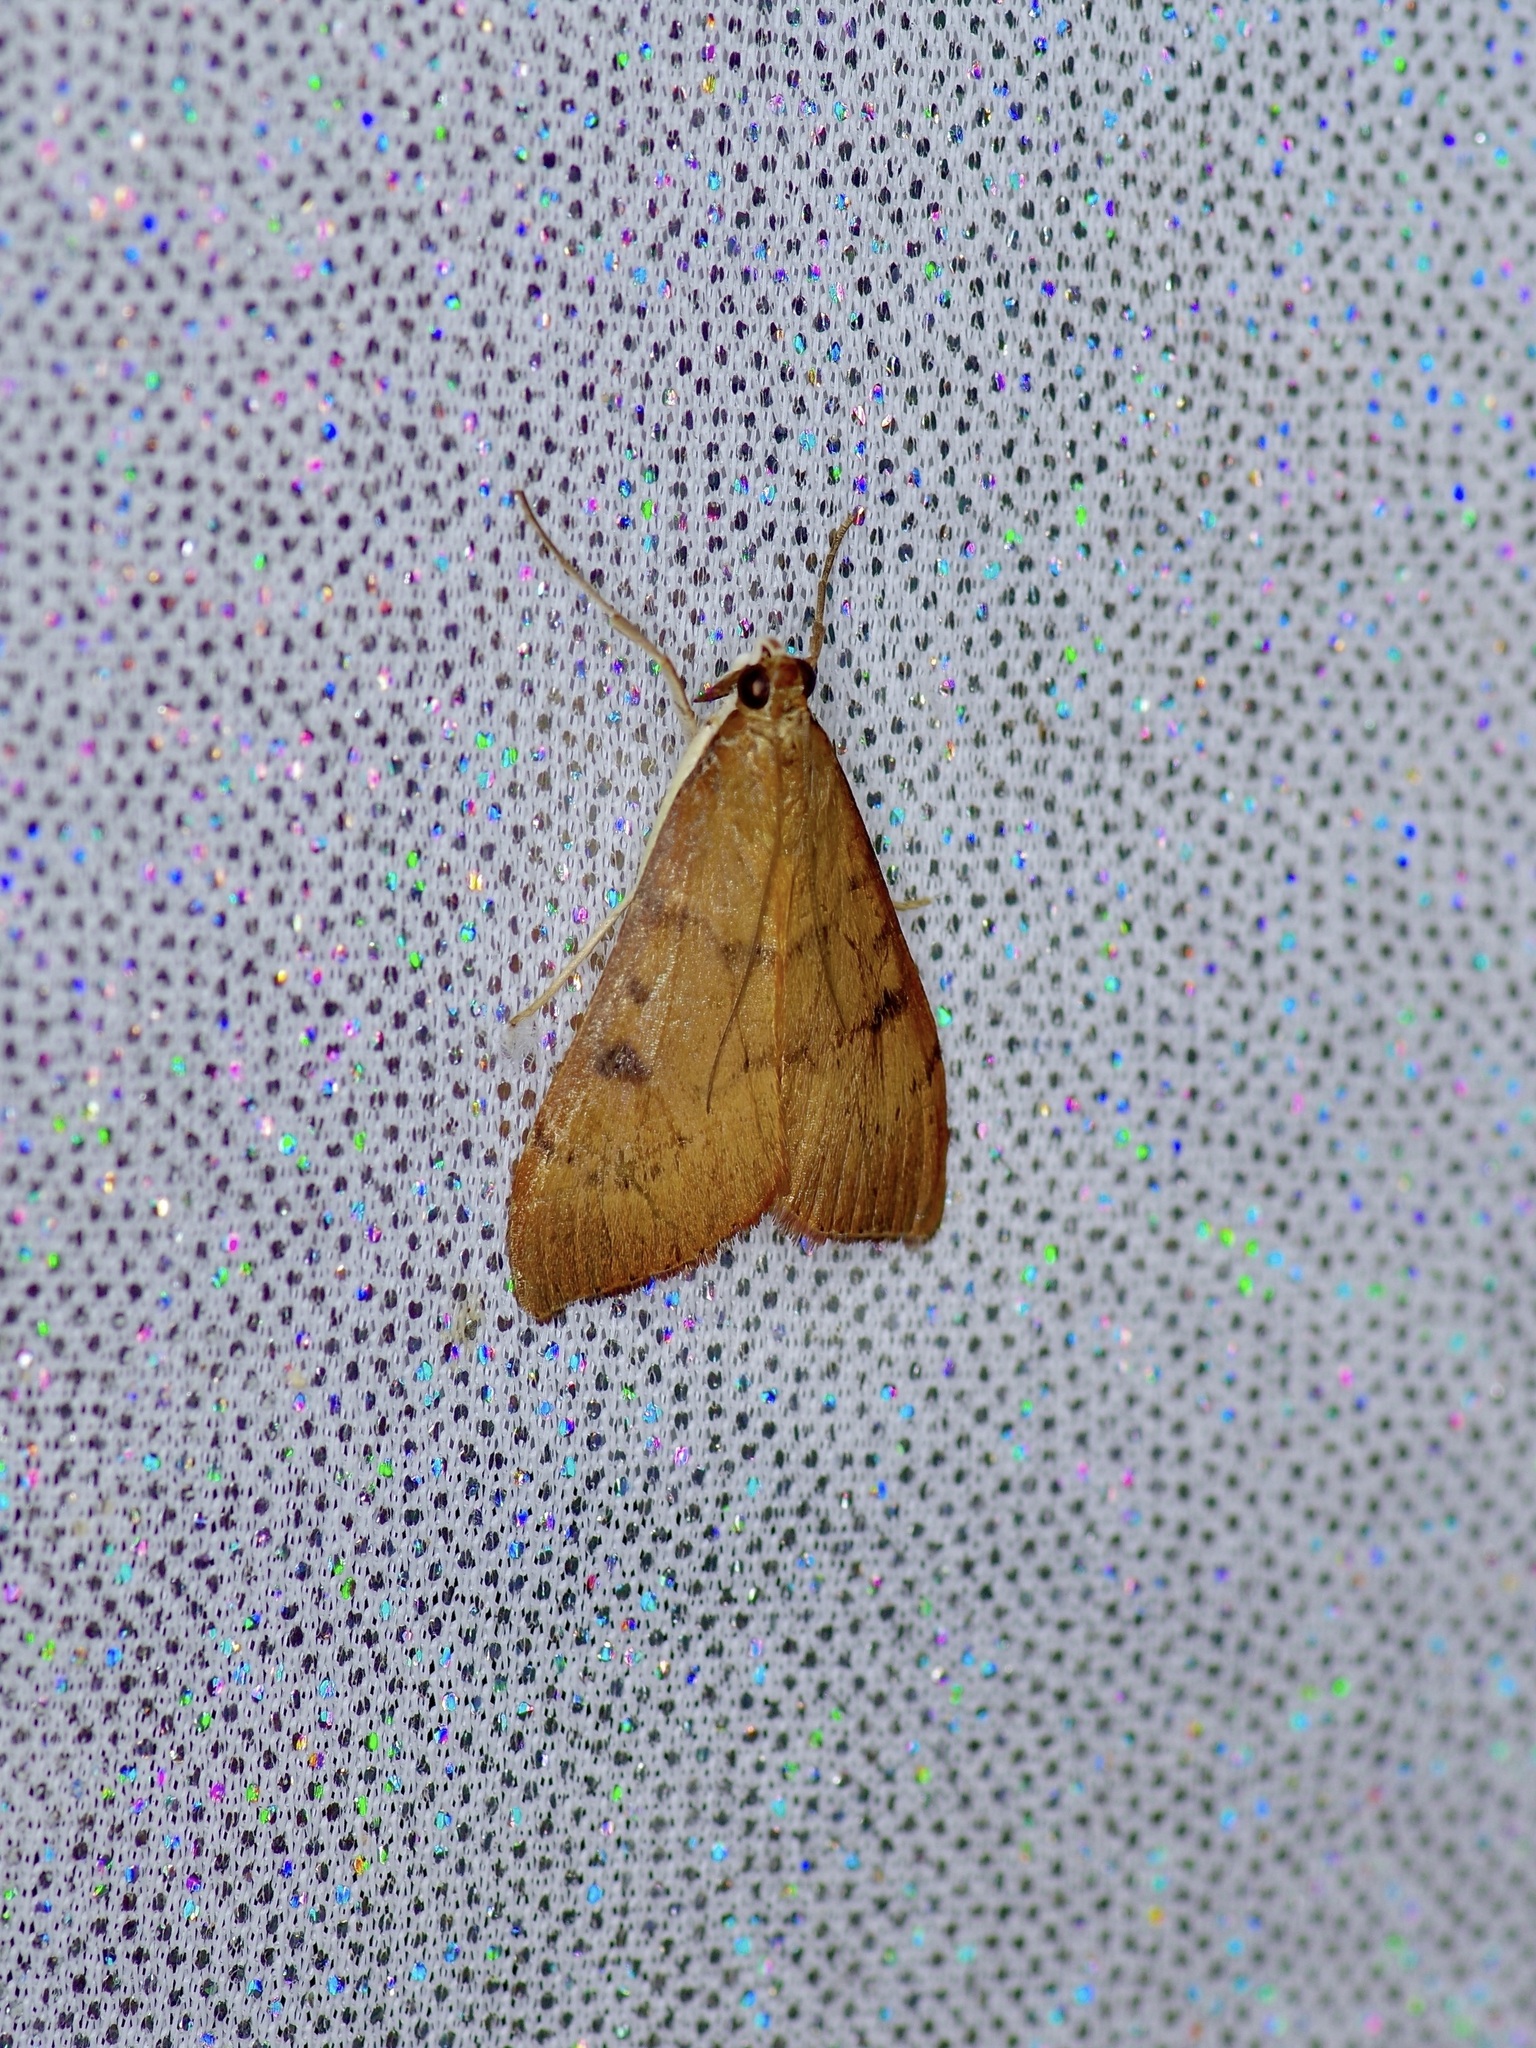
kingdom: Animalia
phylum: Arthropoda
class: Insecta
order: Lepidoptera
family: Crambidae
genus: Uresiphita
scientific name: Uresiphita reversalis
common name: Genista broom moth
